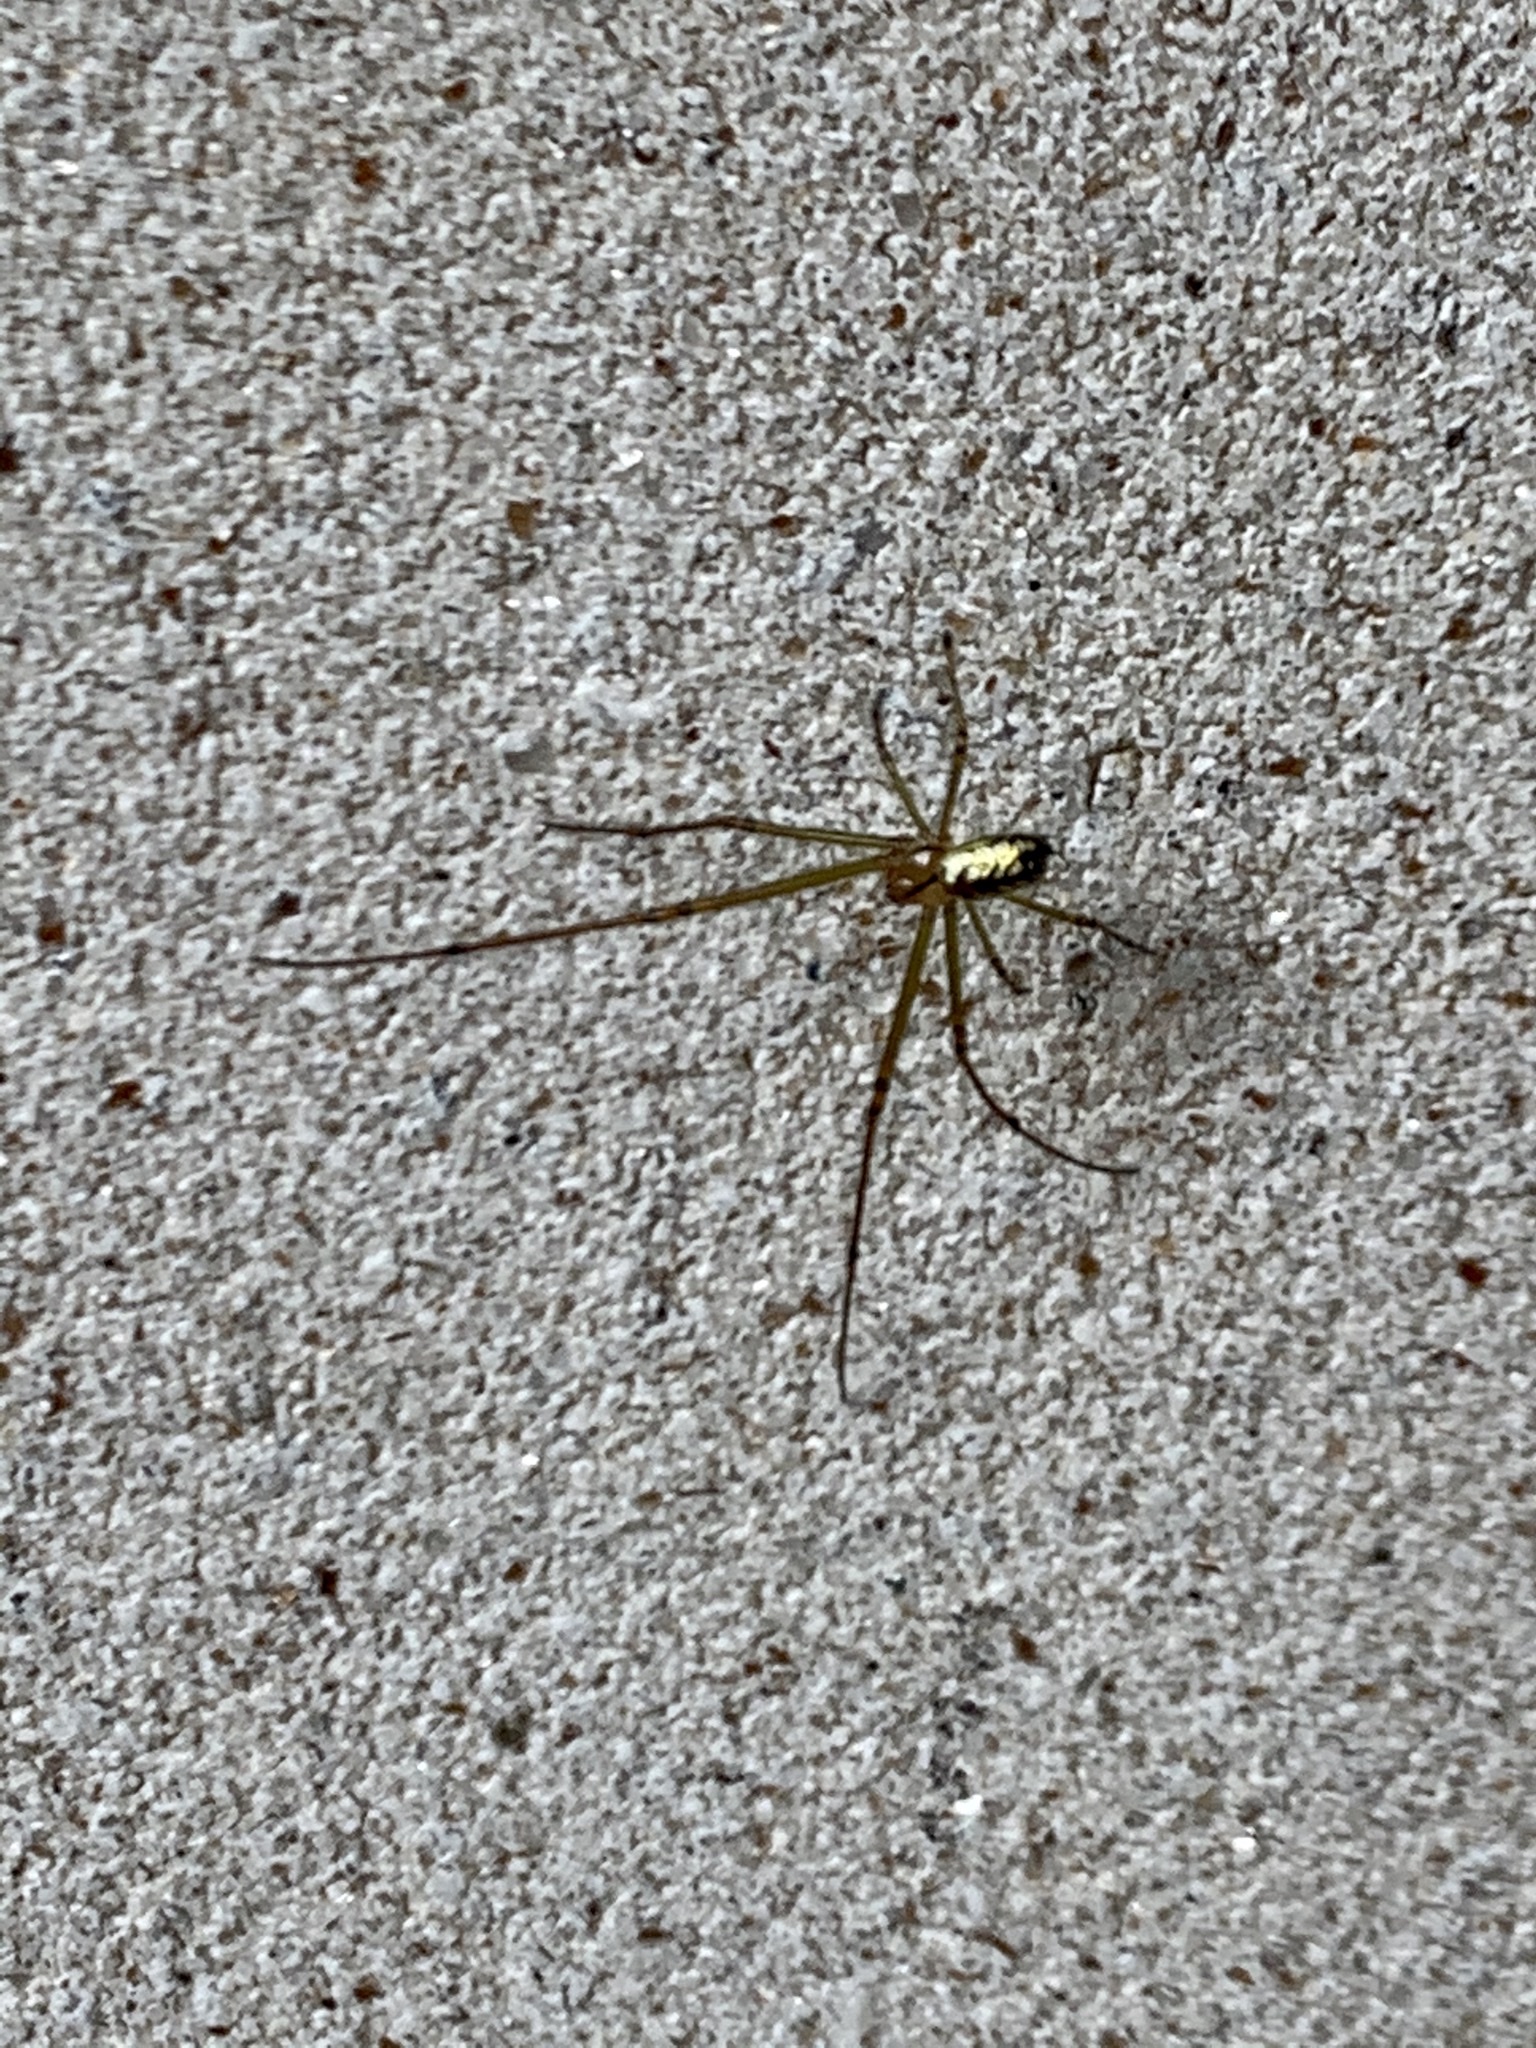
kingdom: Animalia
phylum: Arthropoda
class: Arachnida
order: Araneae
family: Tetragnathidae
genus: Leucauge
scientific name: Leucauge venusta
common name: Longjawed orb weavers
